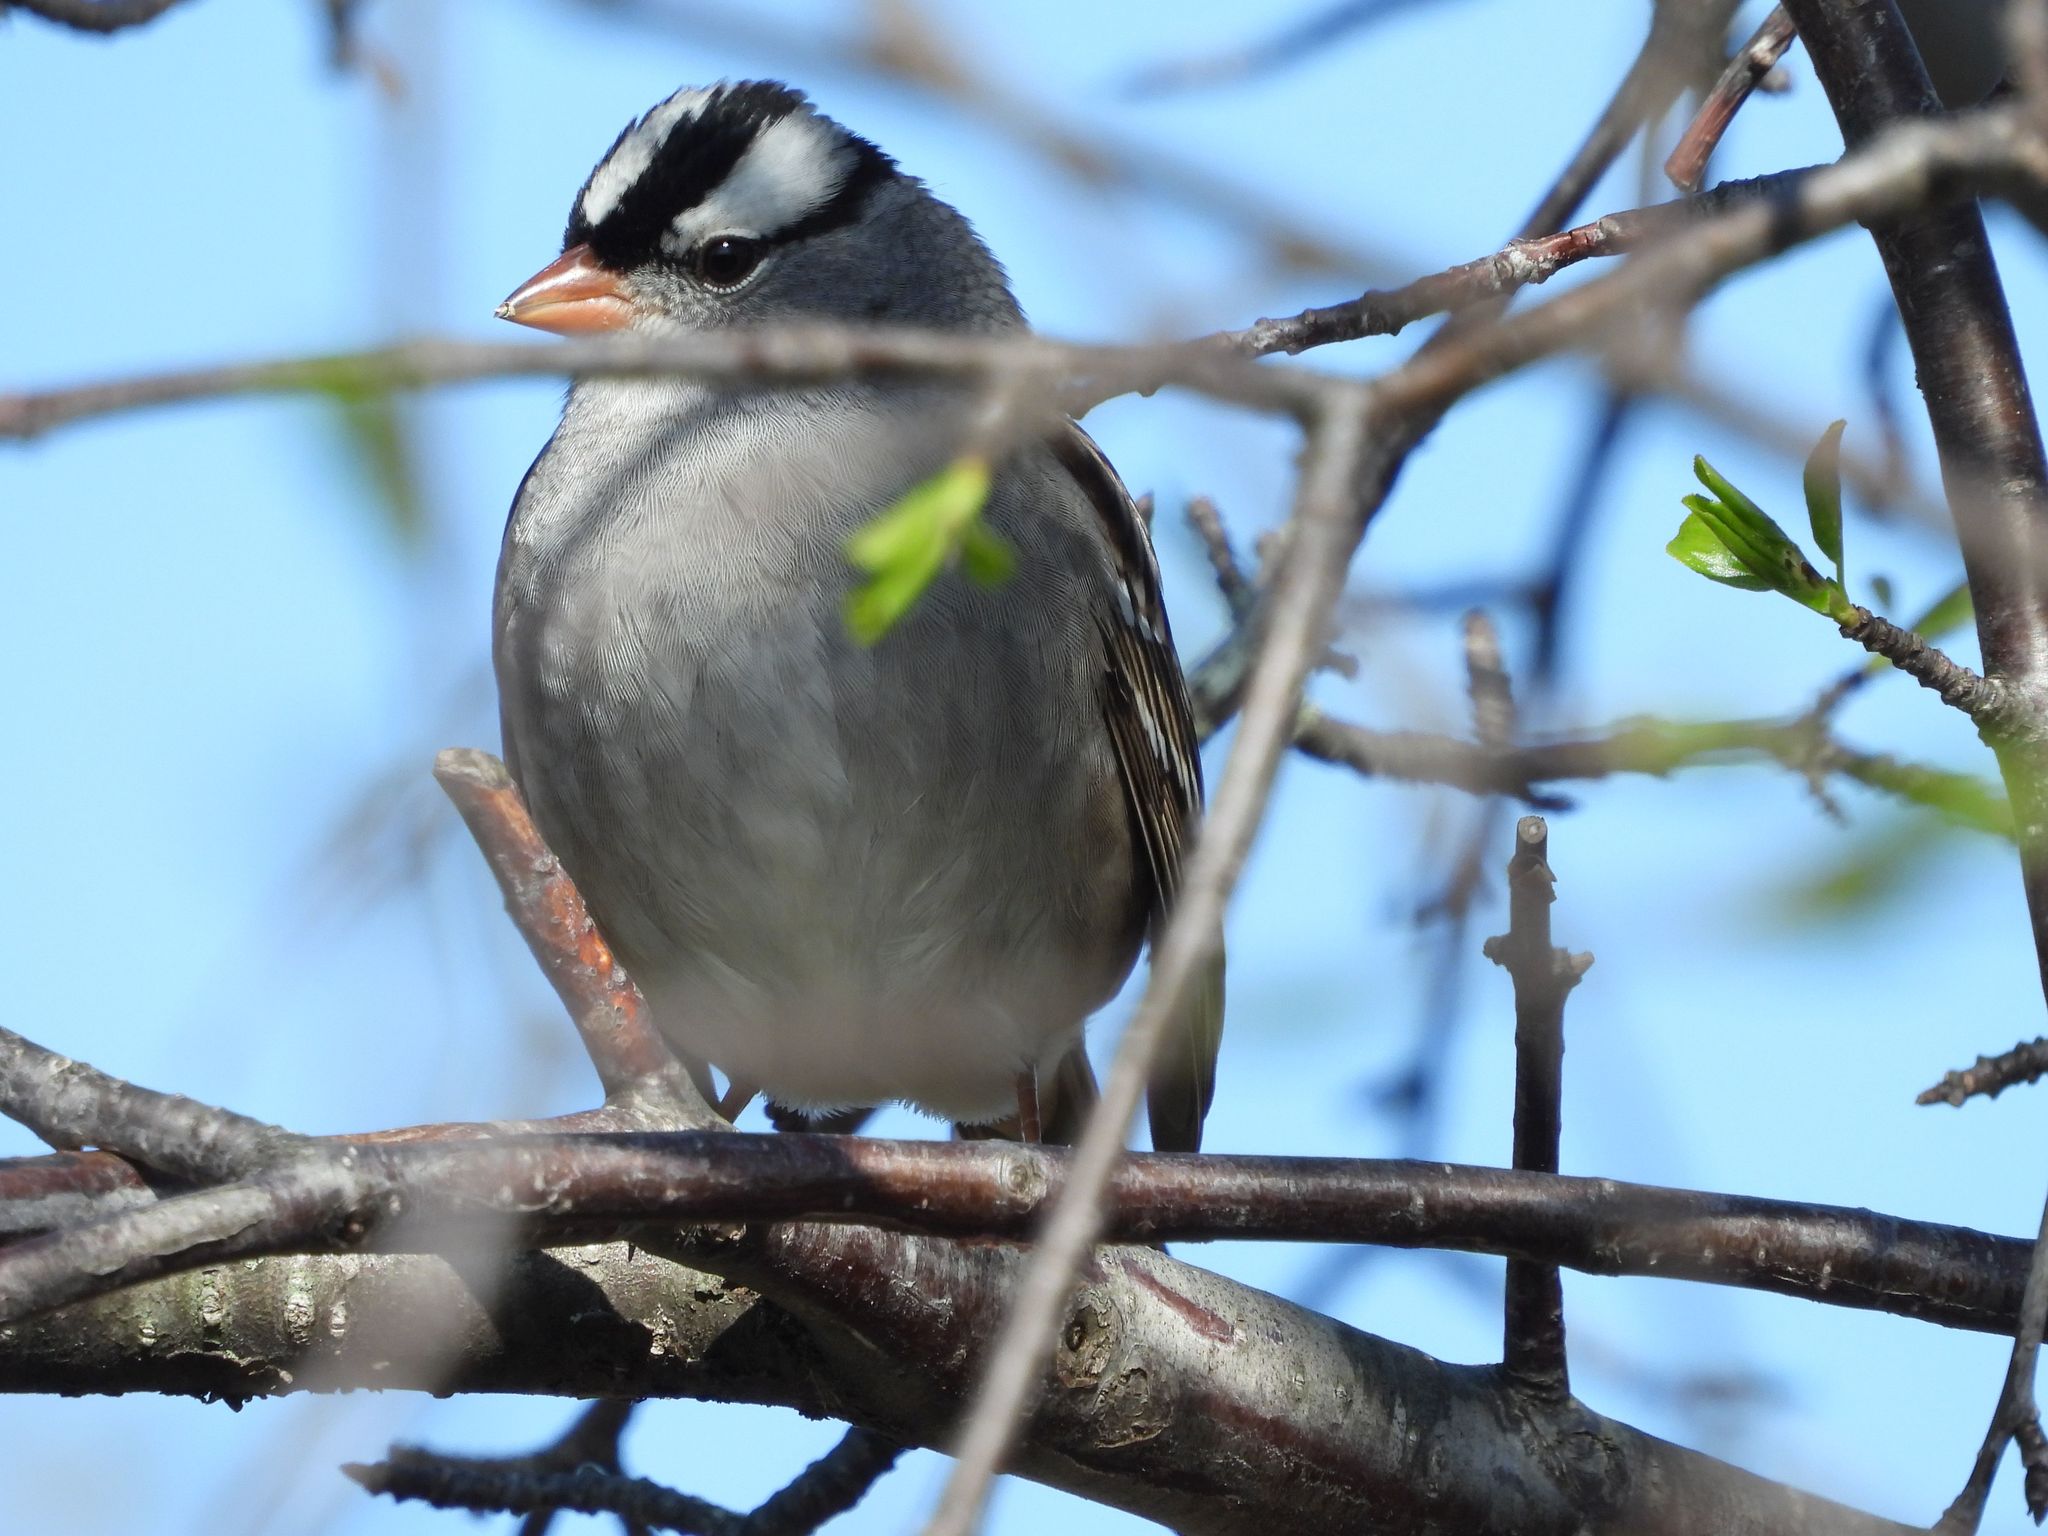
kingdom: Animalia
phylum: Chordata
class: Aves
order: Passeriformes
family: Passerellidae
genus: Zonotrichia
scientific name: Zonotrichia leucophrys
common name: White-crowned sparrow
